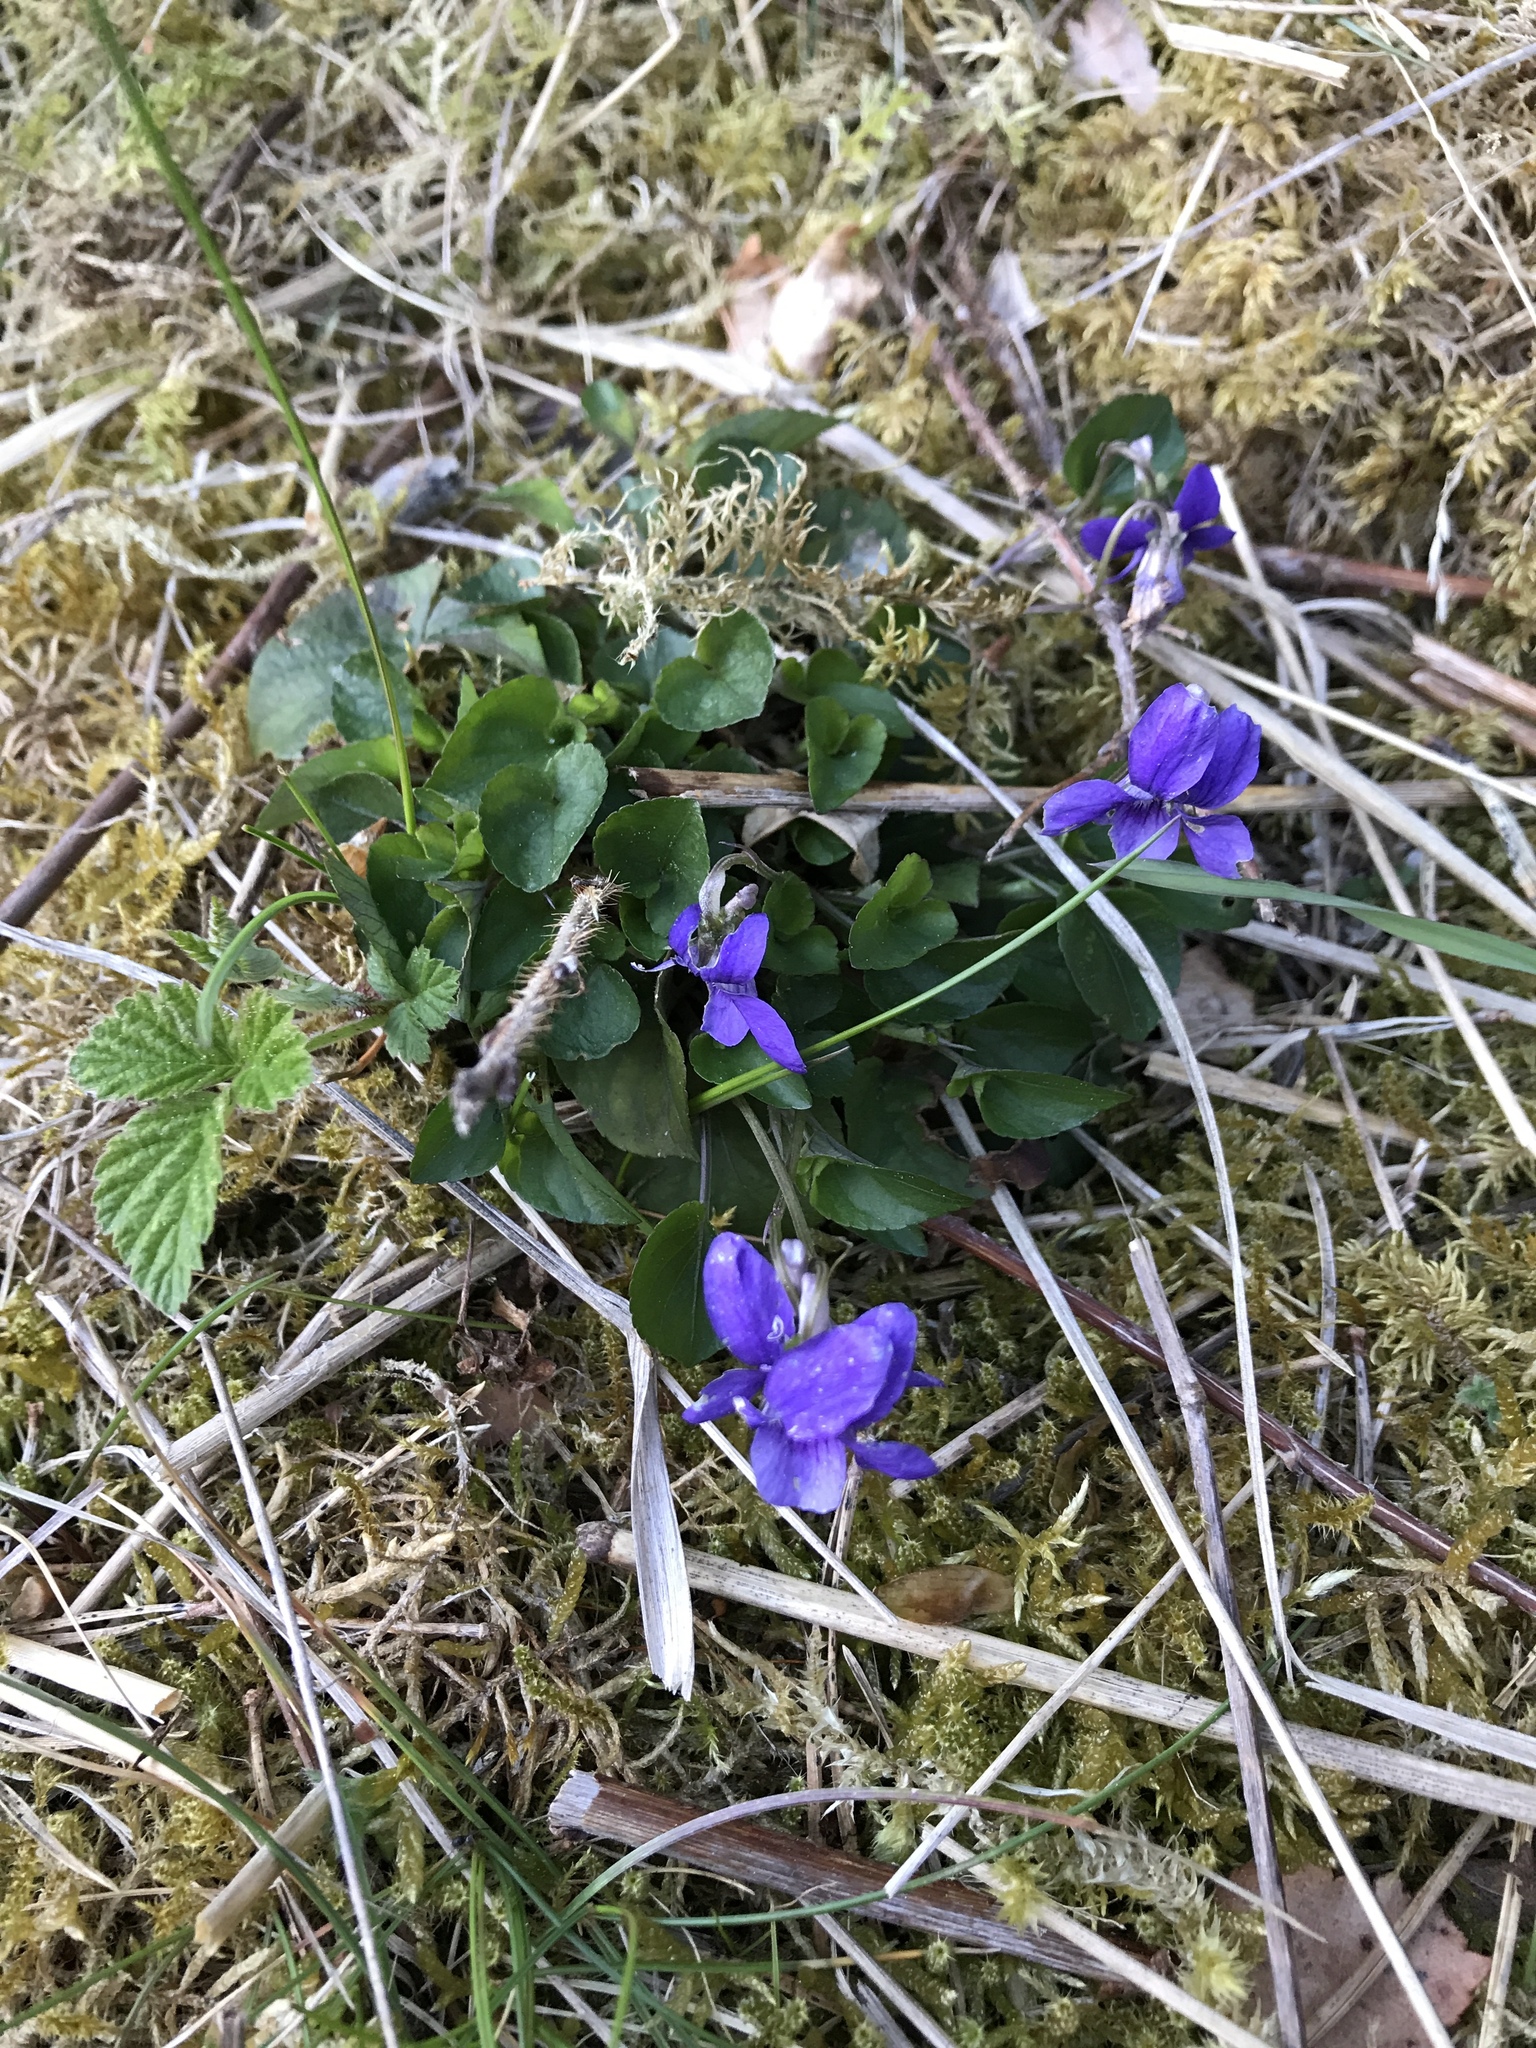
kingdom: Plantae
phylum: Tracheophyta
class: Magnoliopsida
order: Malpighiales
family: Violaceae
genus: Viola
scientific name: Viola riviniana
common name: Common dog-violet
